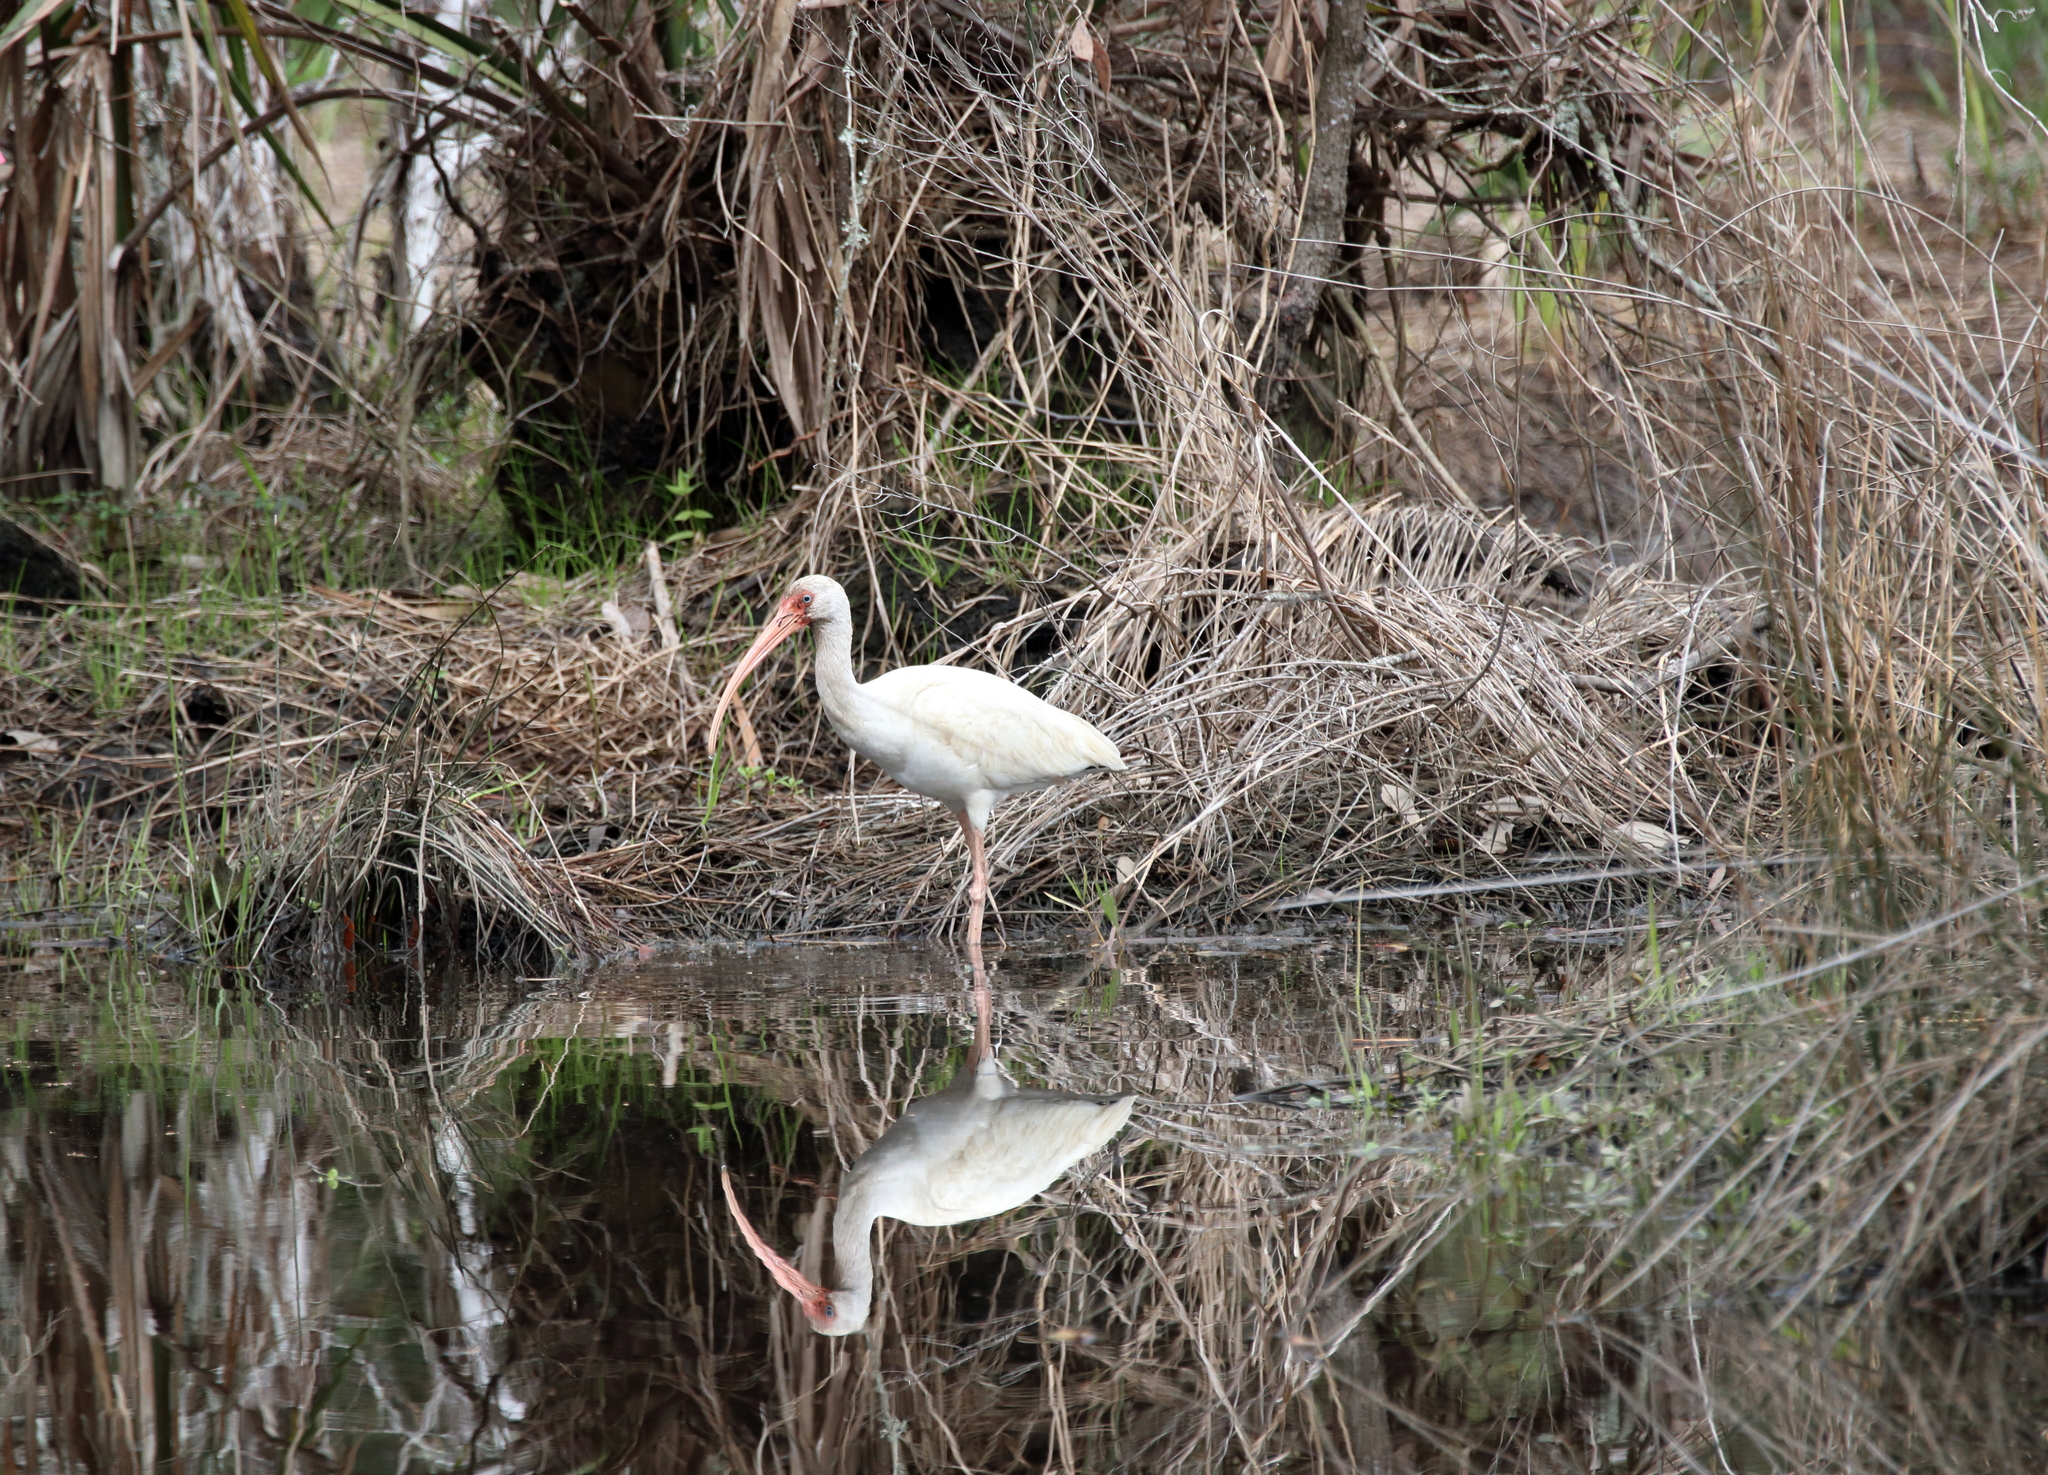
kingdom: Animalia
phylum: Chordata
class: Aves
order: Pelecaniformes
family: Threskiornithidae
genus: Eudocimus
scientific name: Eudocimus albus
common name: White ibis
